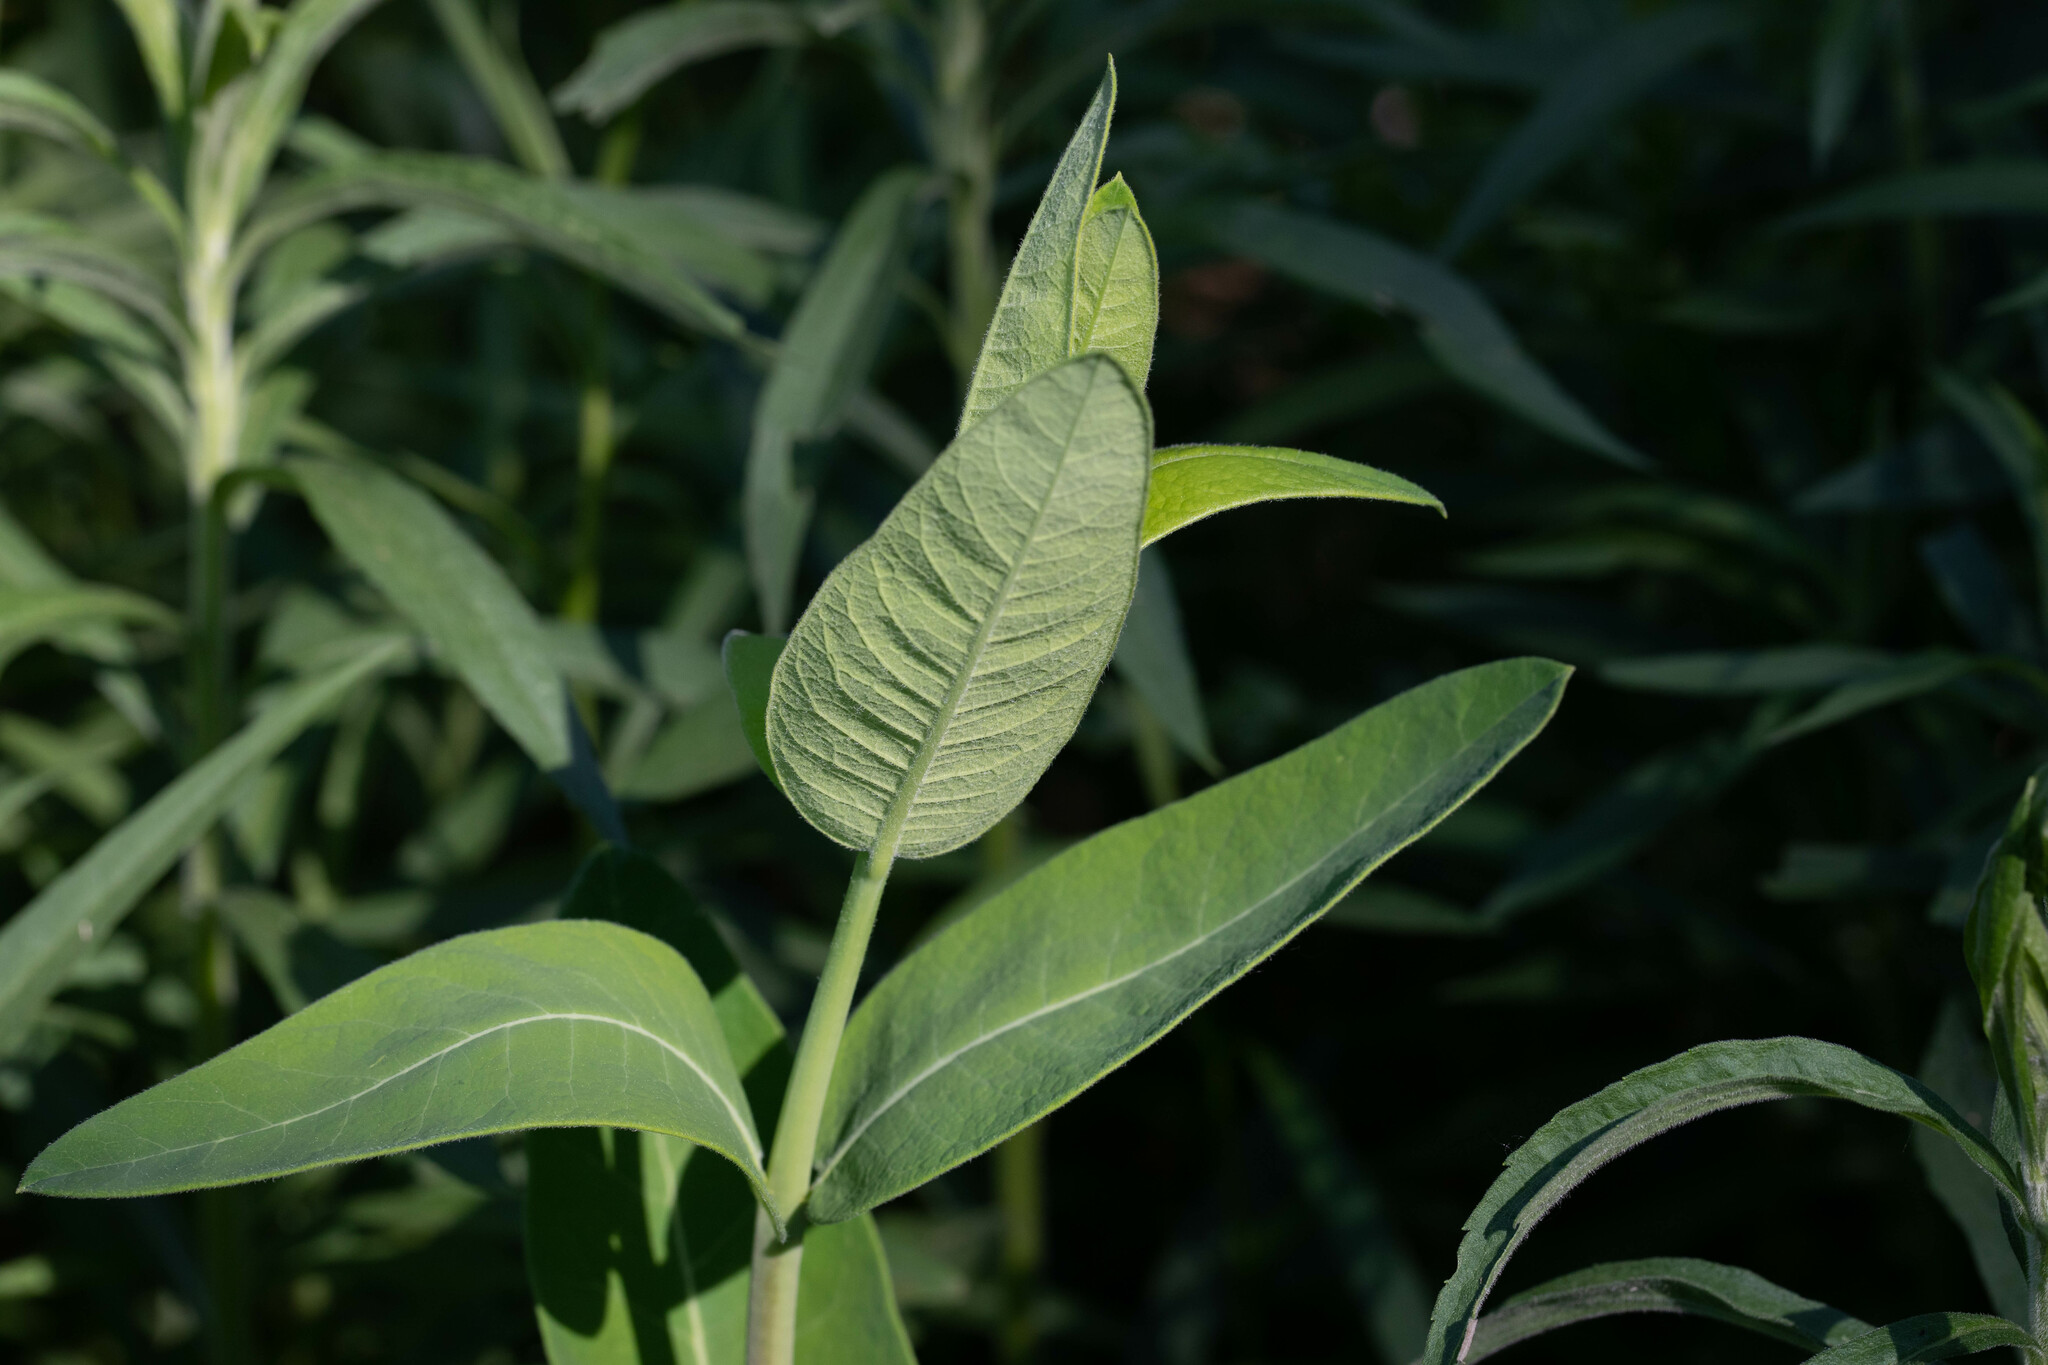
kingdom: Plantae
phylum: Tracheophyta
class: Magnoliopsida
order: Gentianales
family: Apocynaceae
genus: Apocynum
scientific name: Apocynum cannabinum
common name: Hemp dogbane
